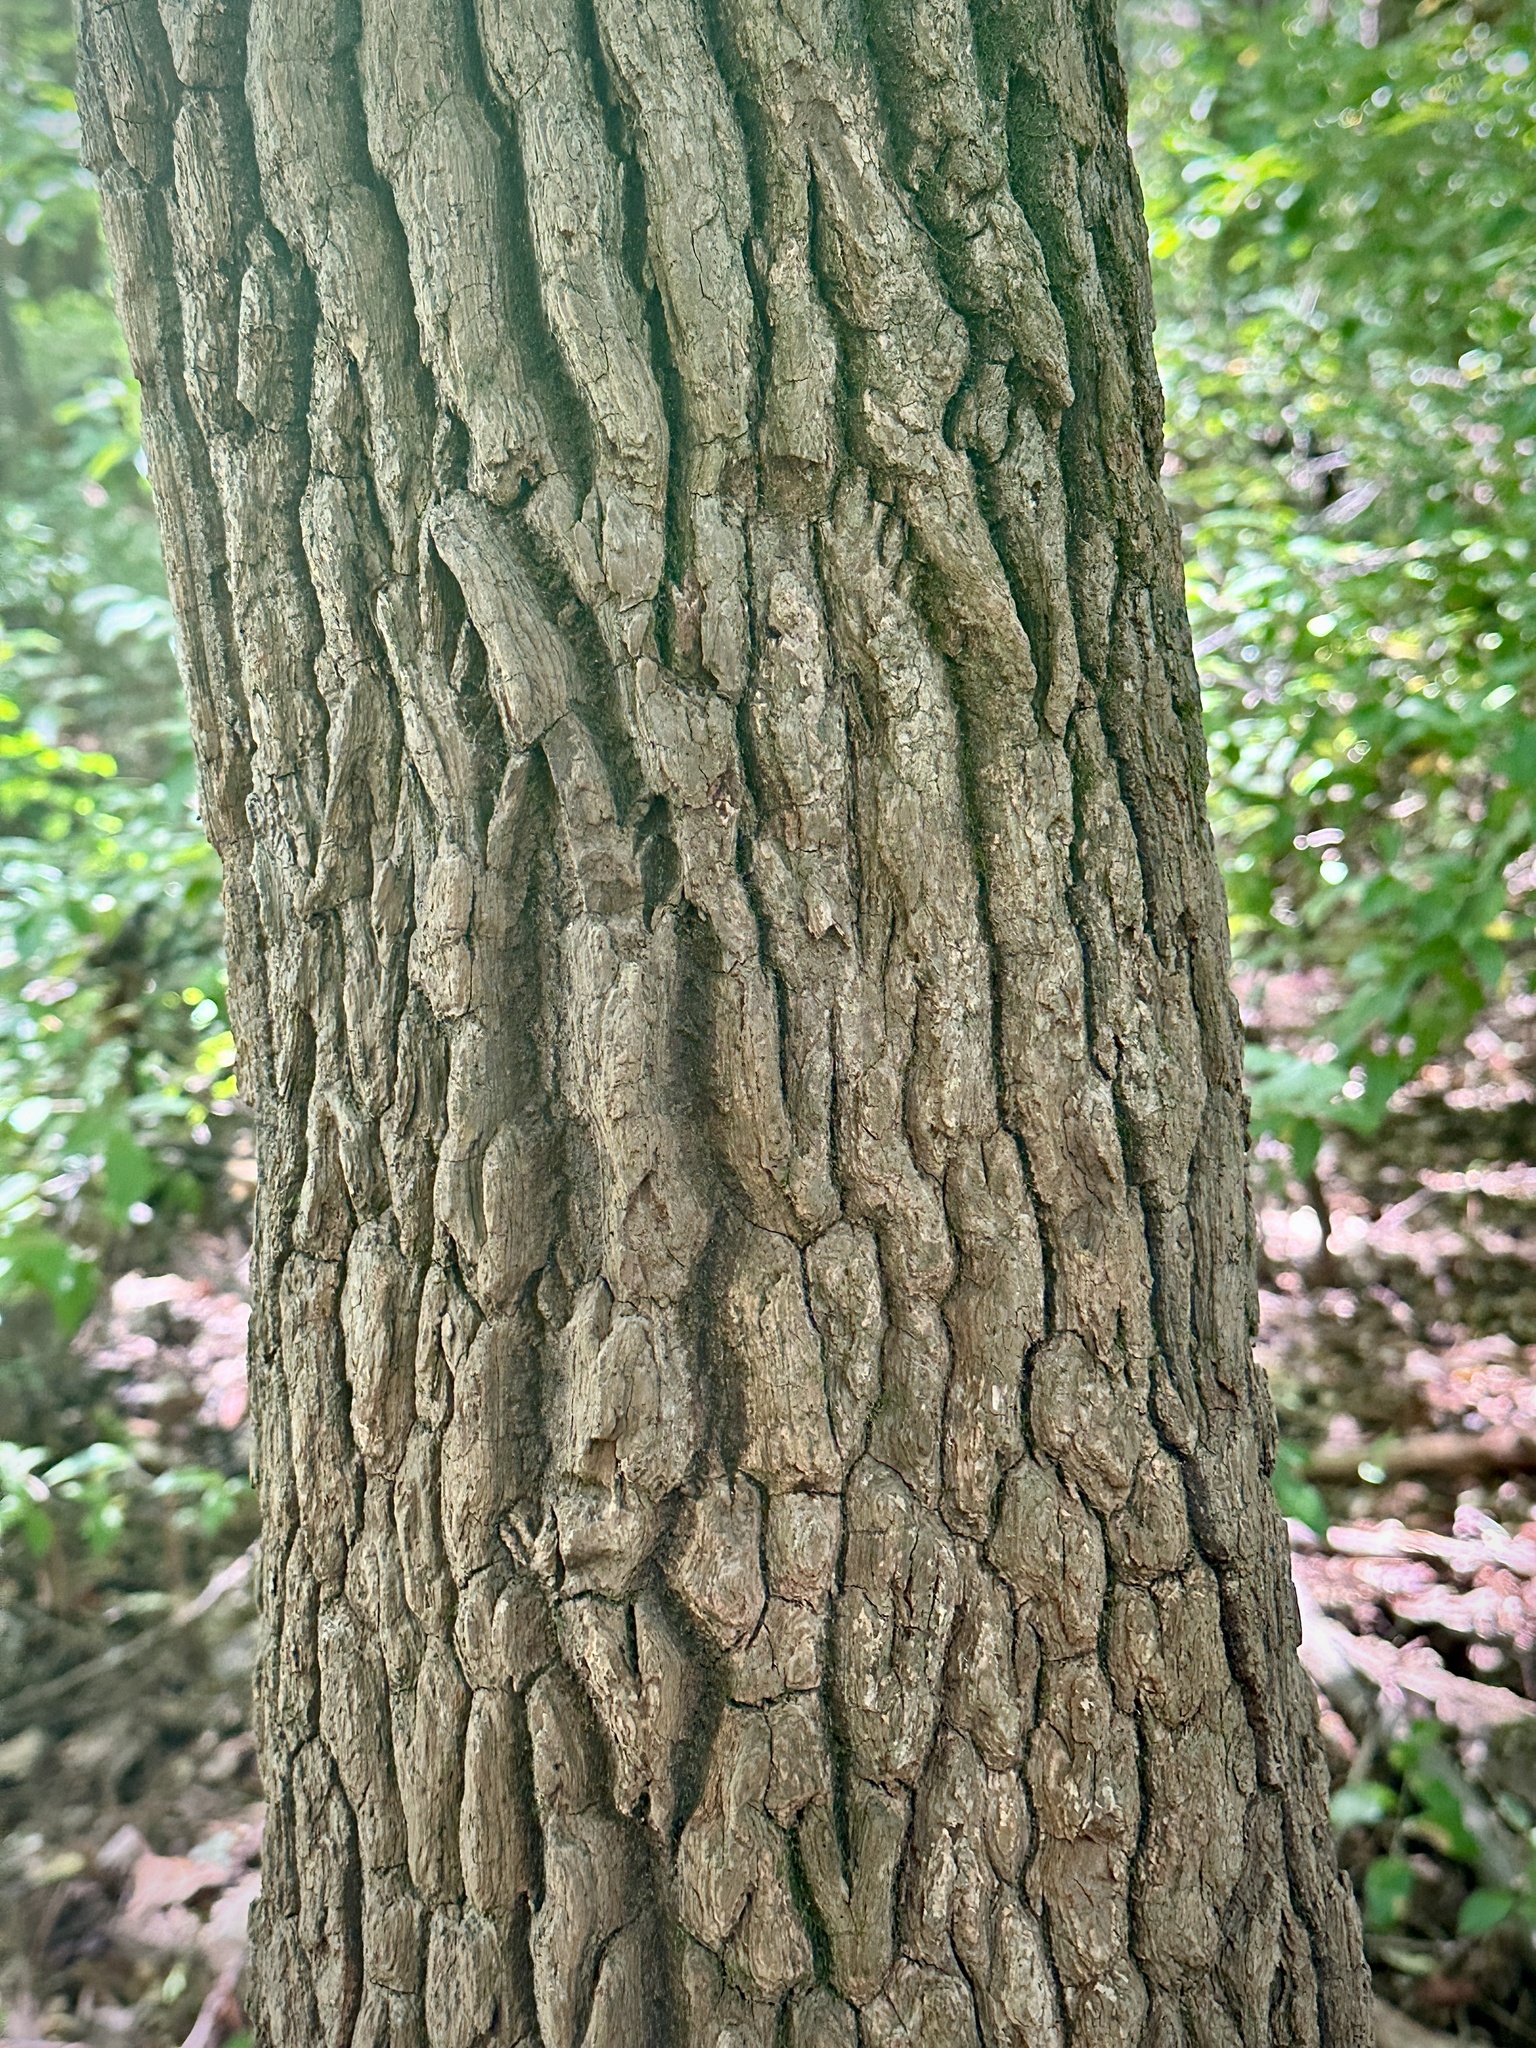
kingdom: Plantae
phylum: Tracheophyta
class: Magnoliopsida
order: Ericales
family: Ericaceae
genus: Oxydendrum
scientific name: Oxydendrum arboreum
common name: Sourwood
